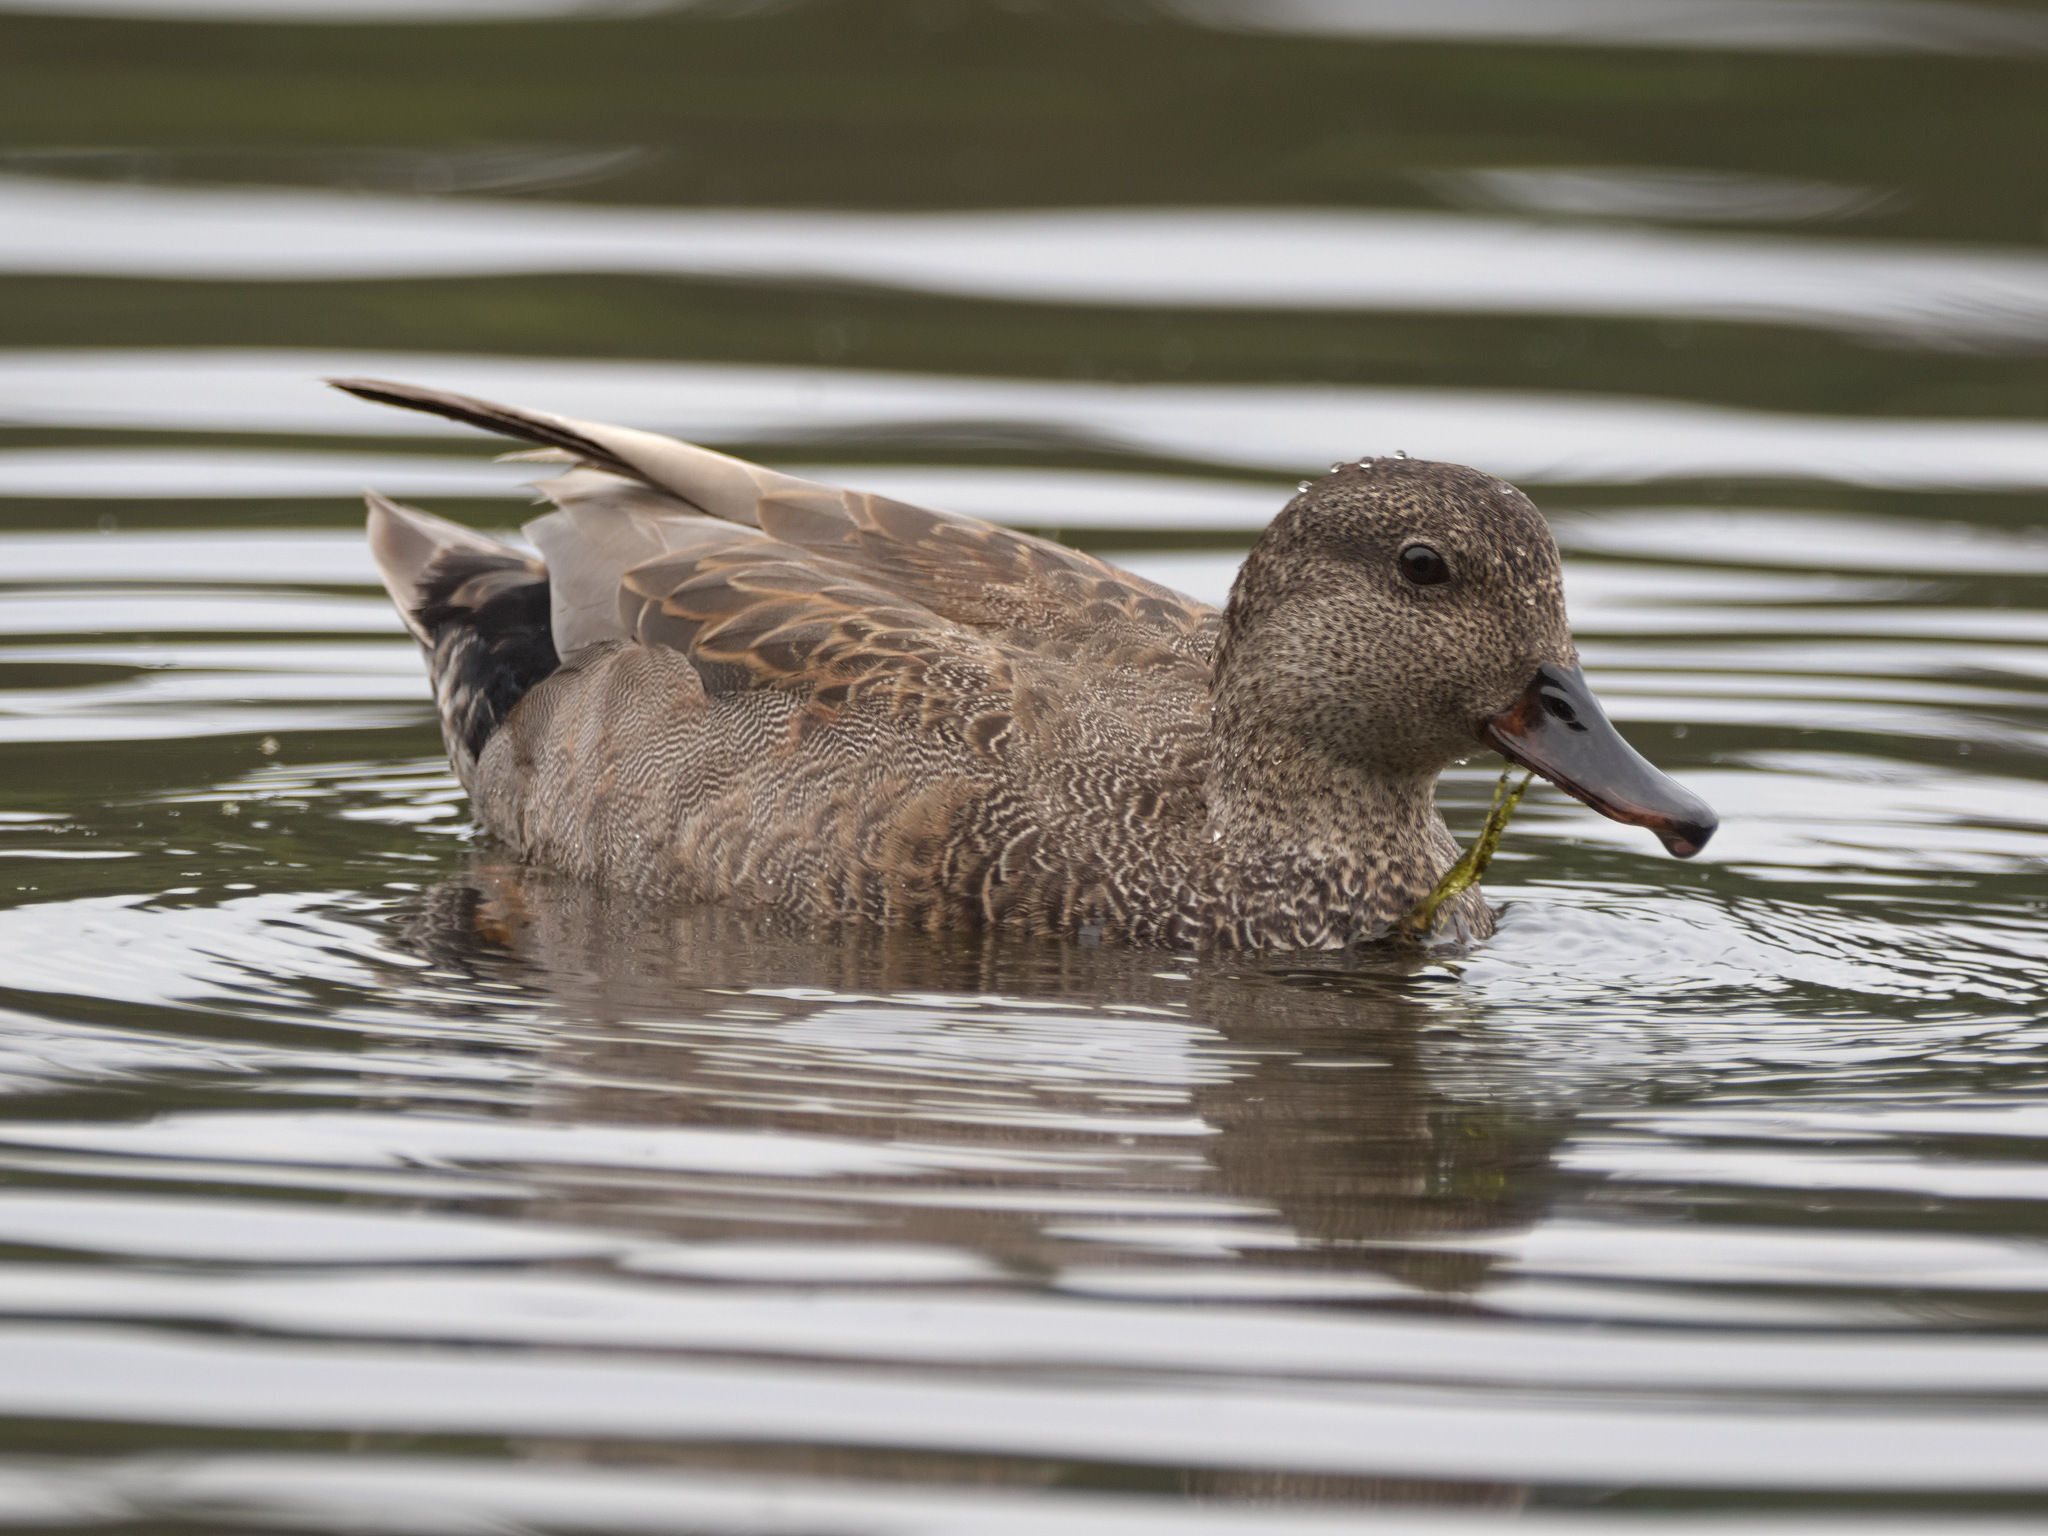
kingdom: Animalia
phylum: Chordata
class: Aves
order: Anseriformes
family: Anatidae
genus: Mareca
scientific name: Mareca strepera
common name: Gadwall
